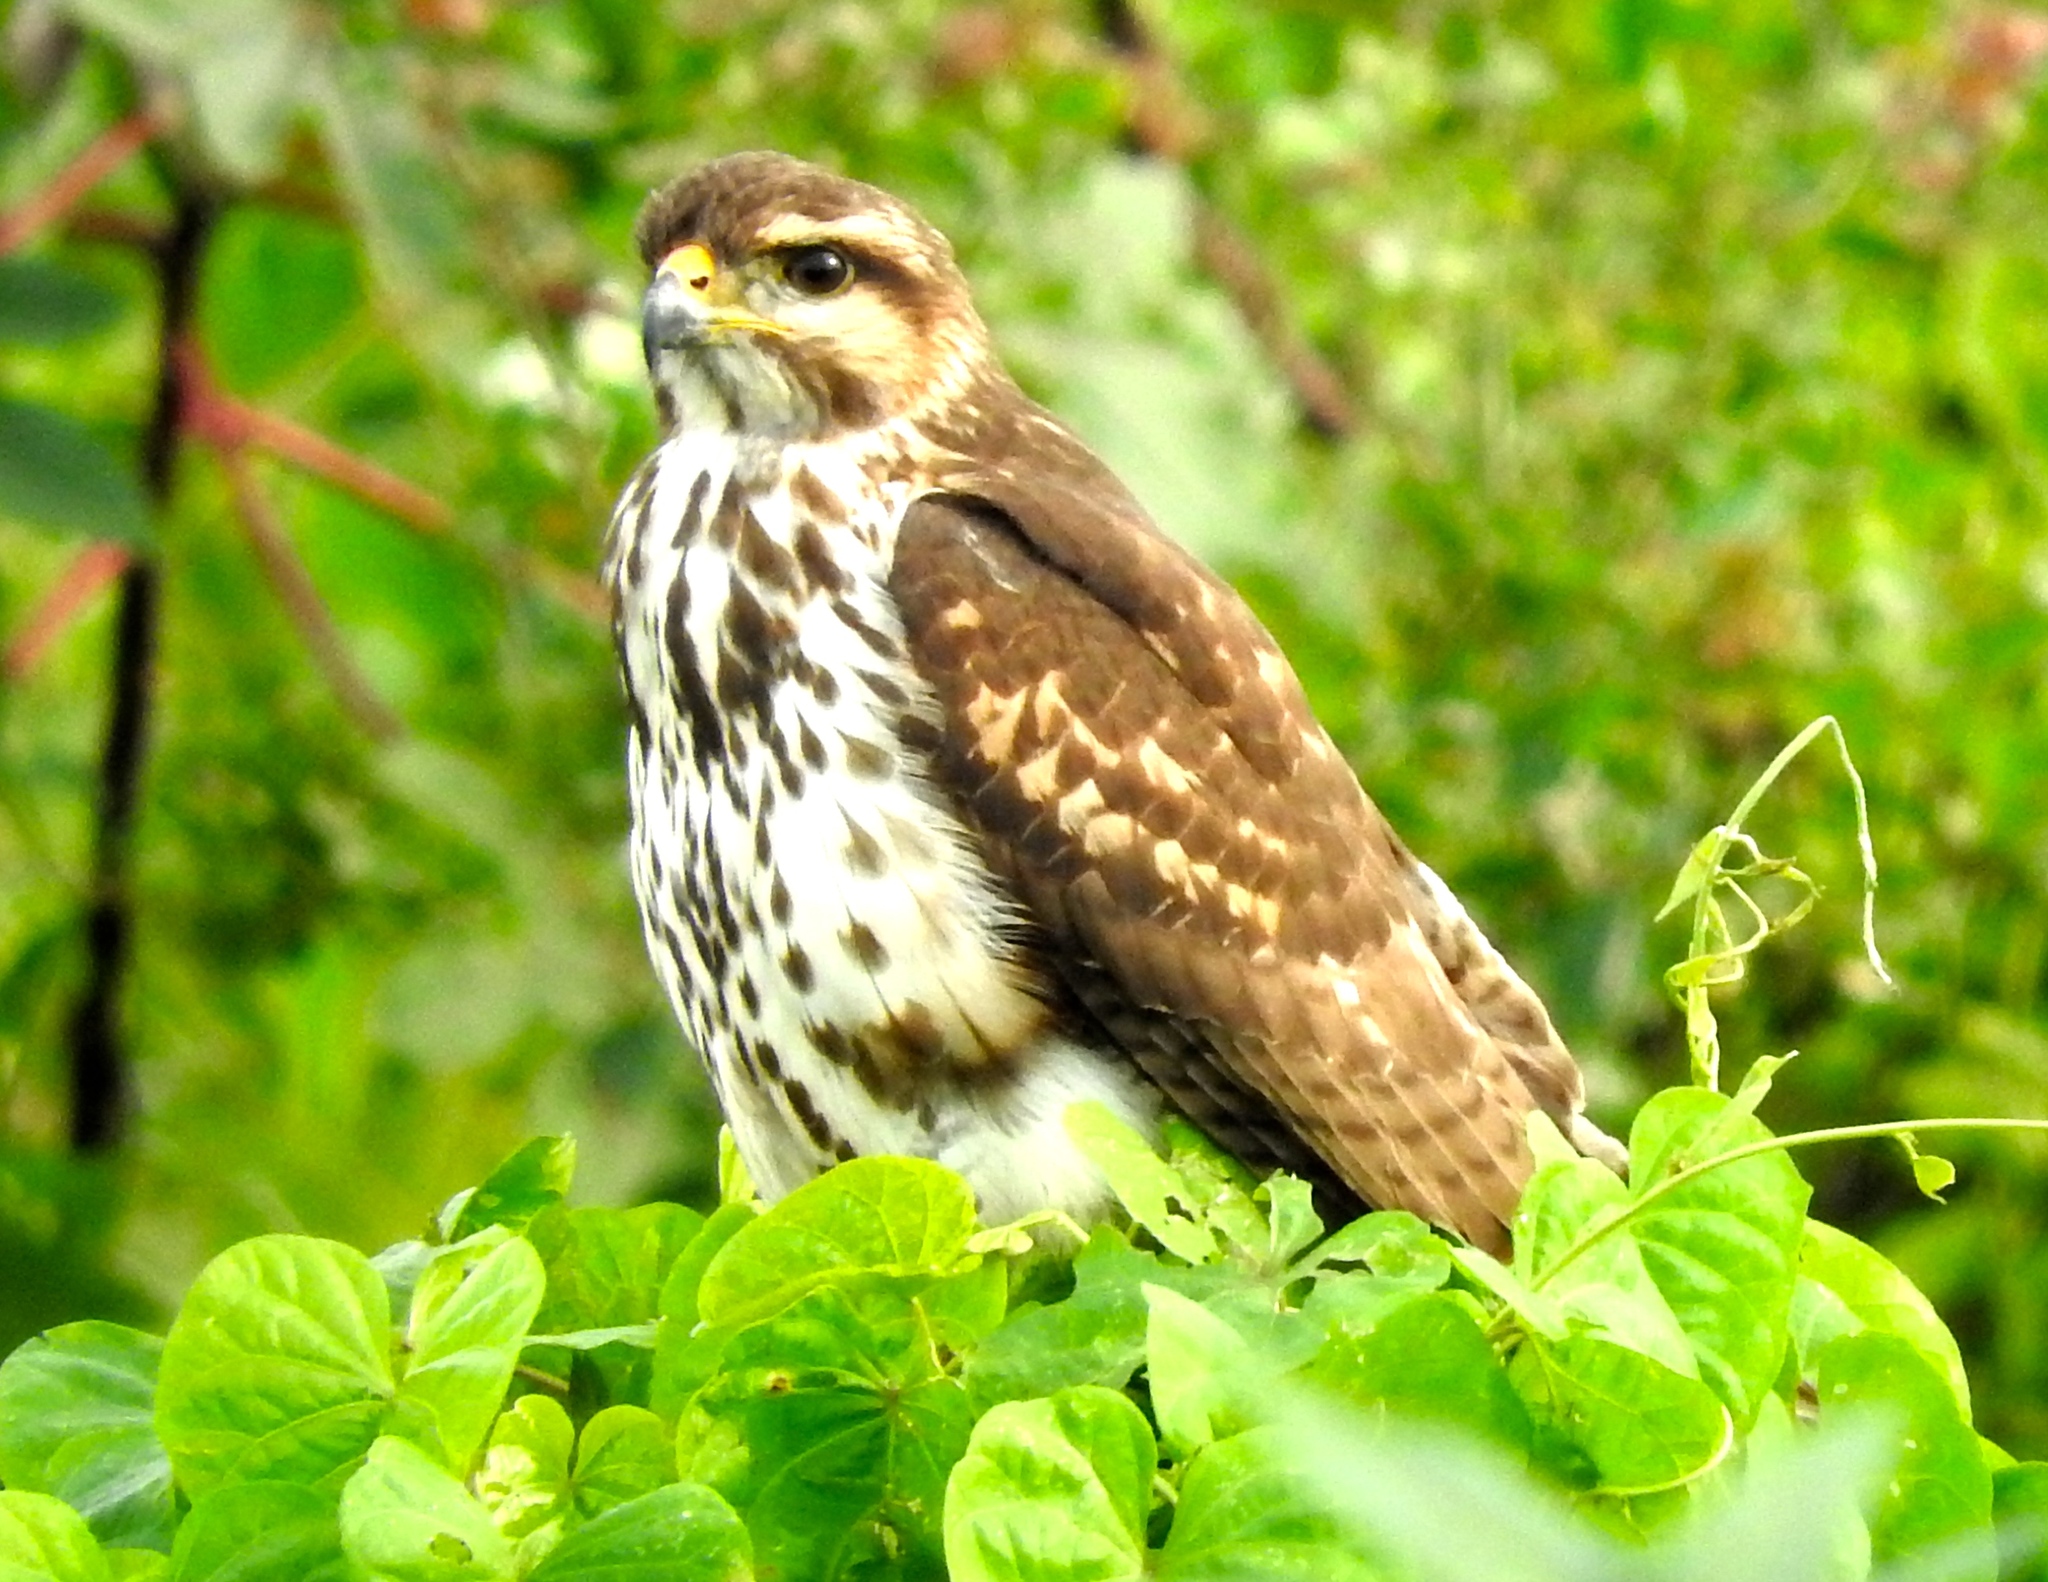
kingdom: Animalia
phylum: Chordata
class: Aves
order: Accipitriformes
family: Accipitridae
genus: Buteo
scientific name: Buteo nitidus
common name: Grey-lined hawk
